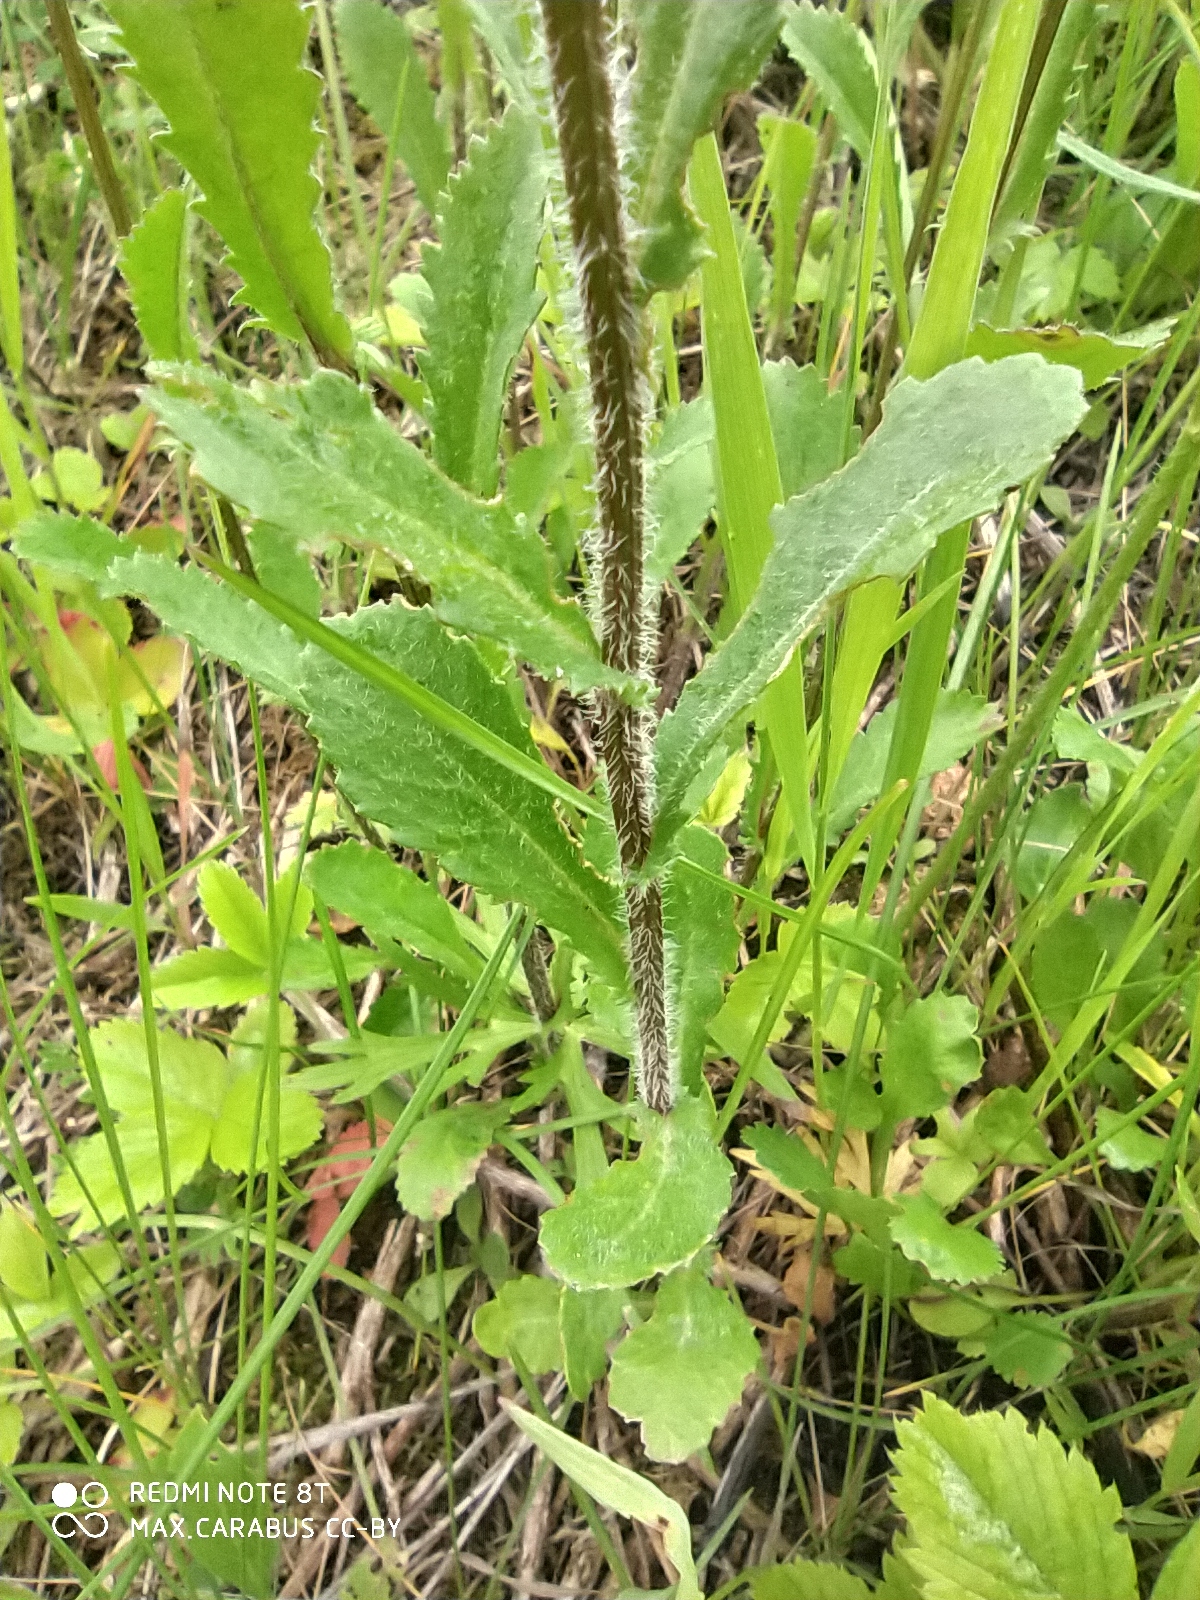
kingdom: Plantae
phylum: Tracheophyta
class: Magnoliopsida
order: Asterales
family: Asteraceae
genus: Leucanthemum
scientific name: Leucanthemum vulgare
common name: Oxeye daisy
